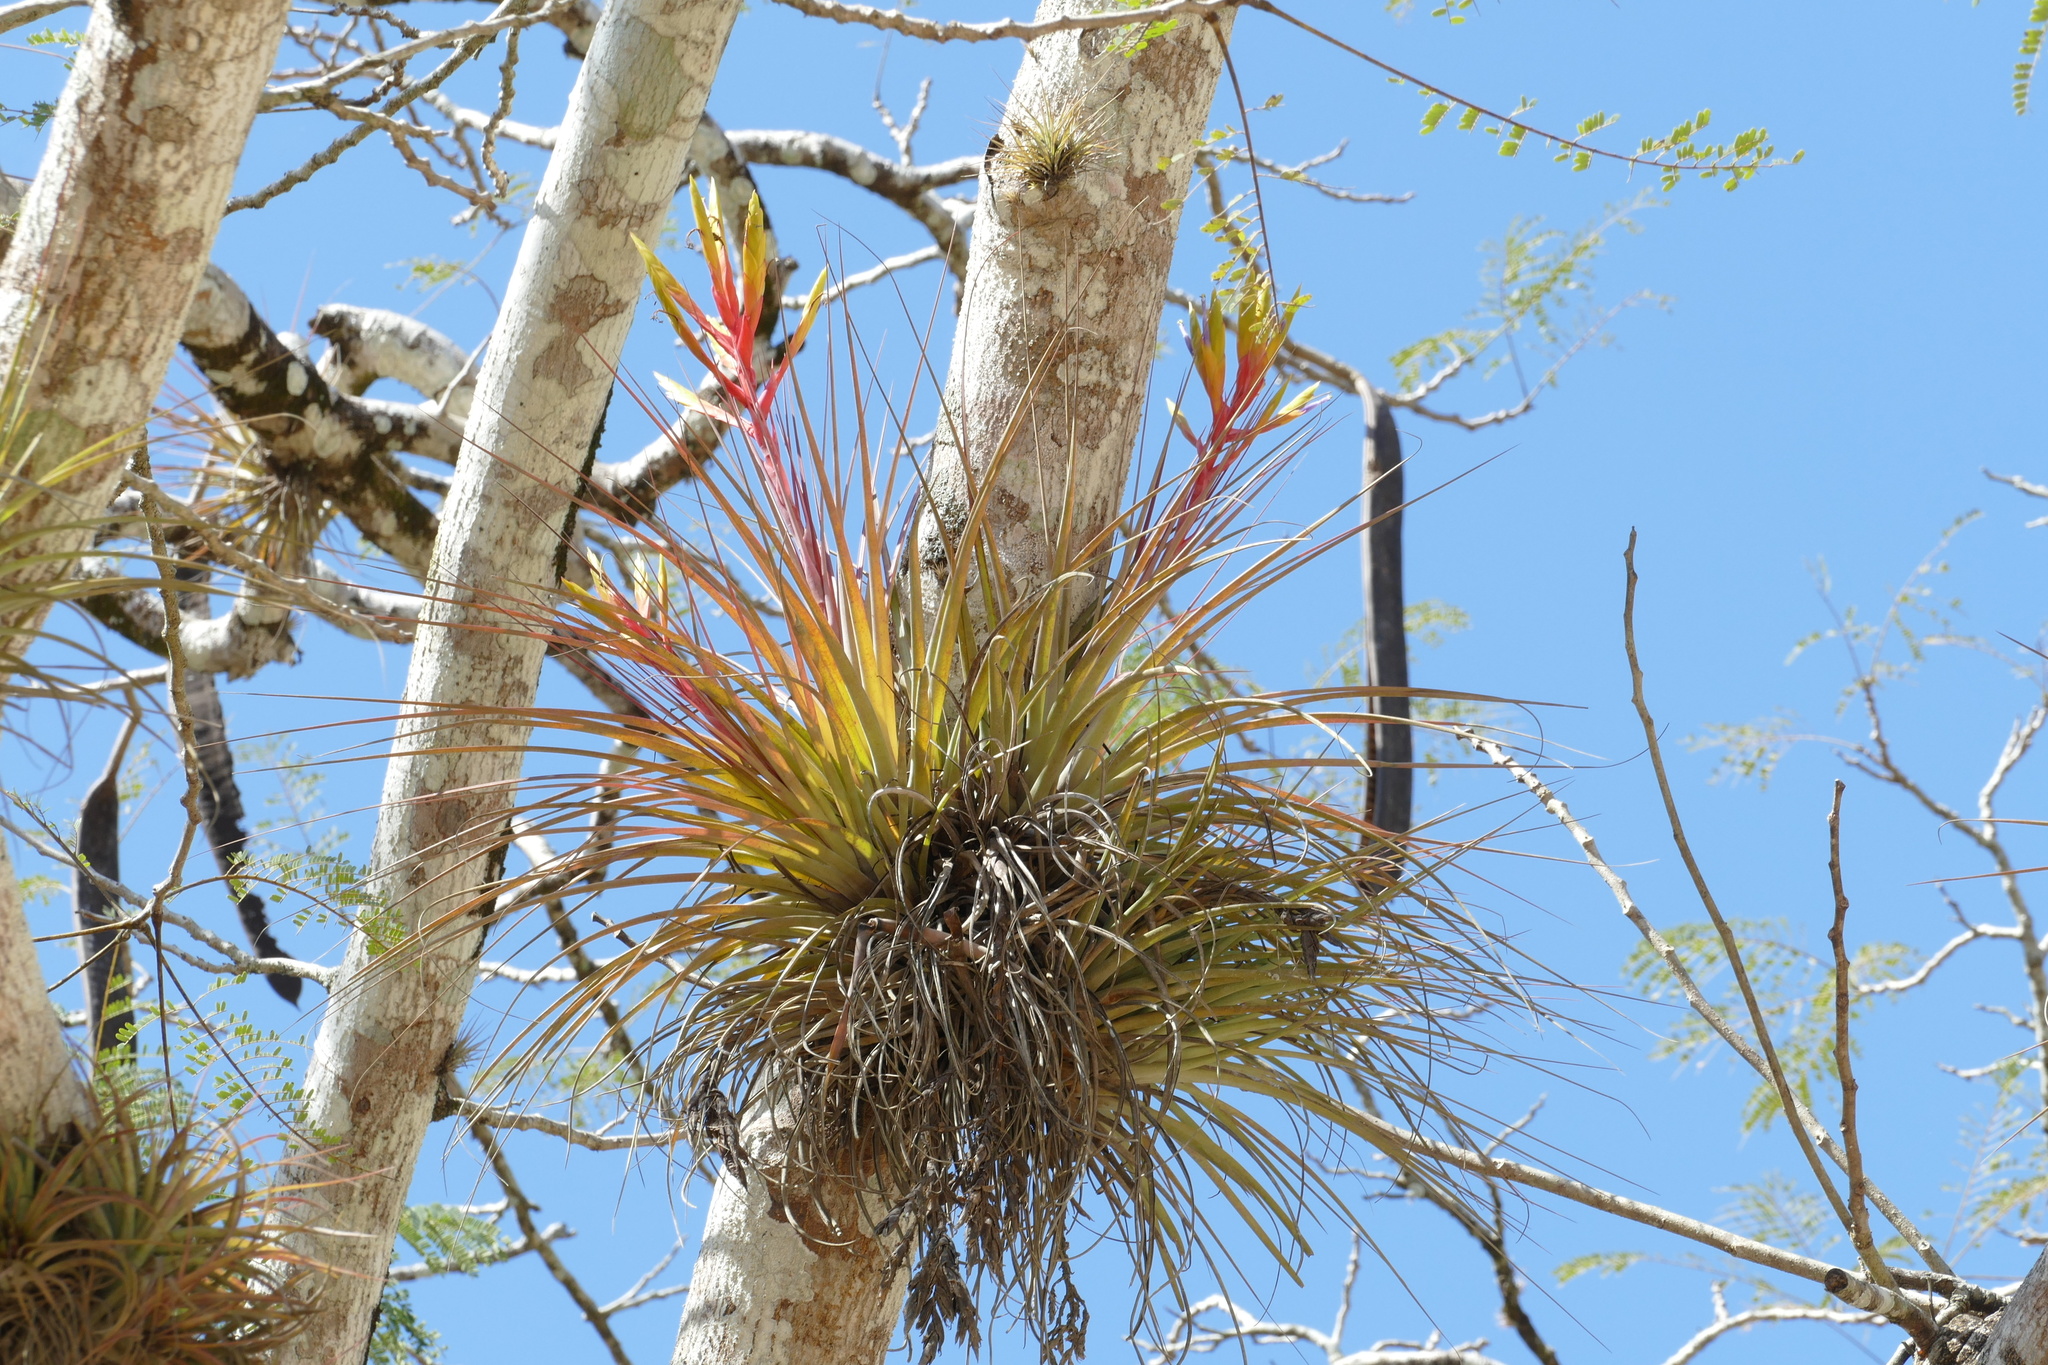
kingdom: Plantae
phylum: Tracheophyta
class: Liliopsida
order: Poales
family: Bromeliaceae
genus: Tillandsia
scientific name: Tillandsia fasciculata
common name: Giant airplant
